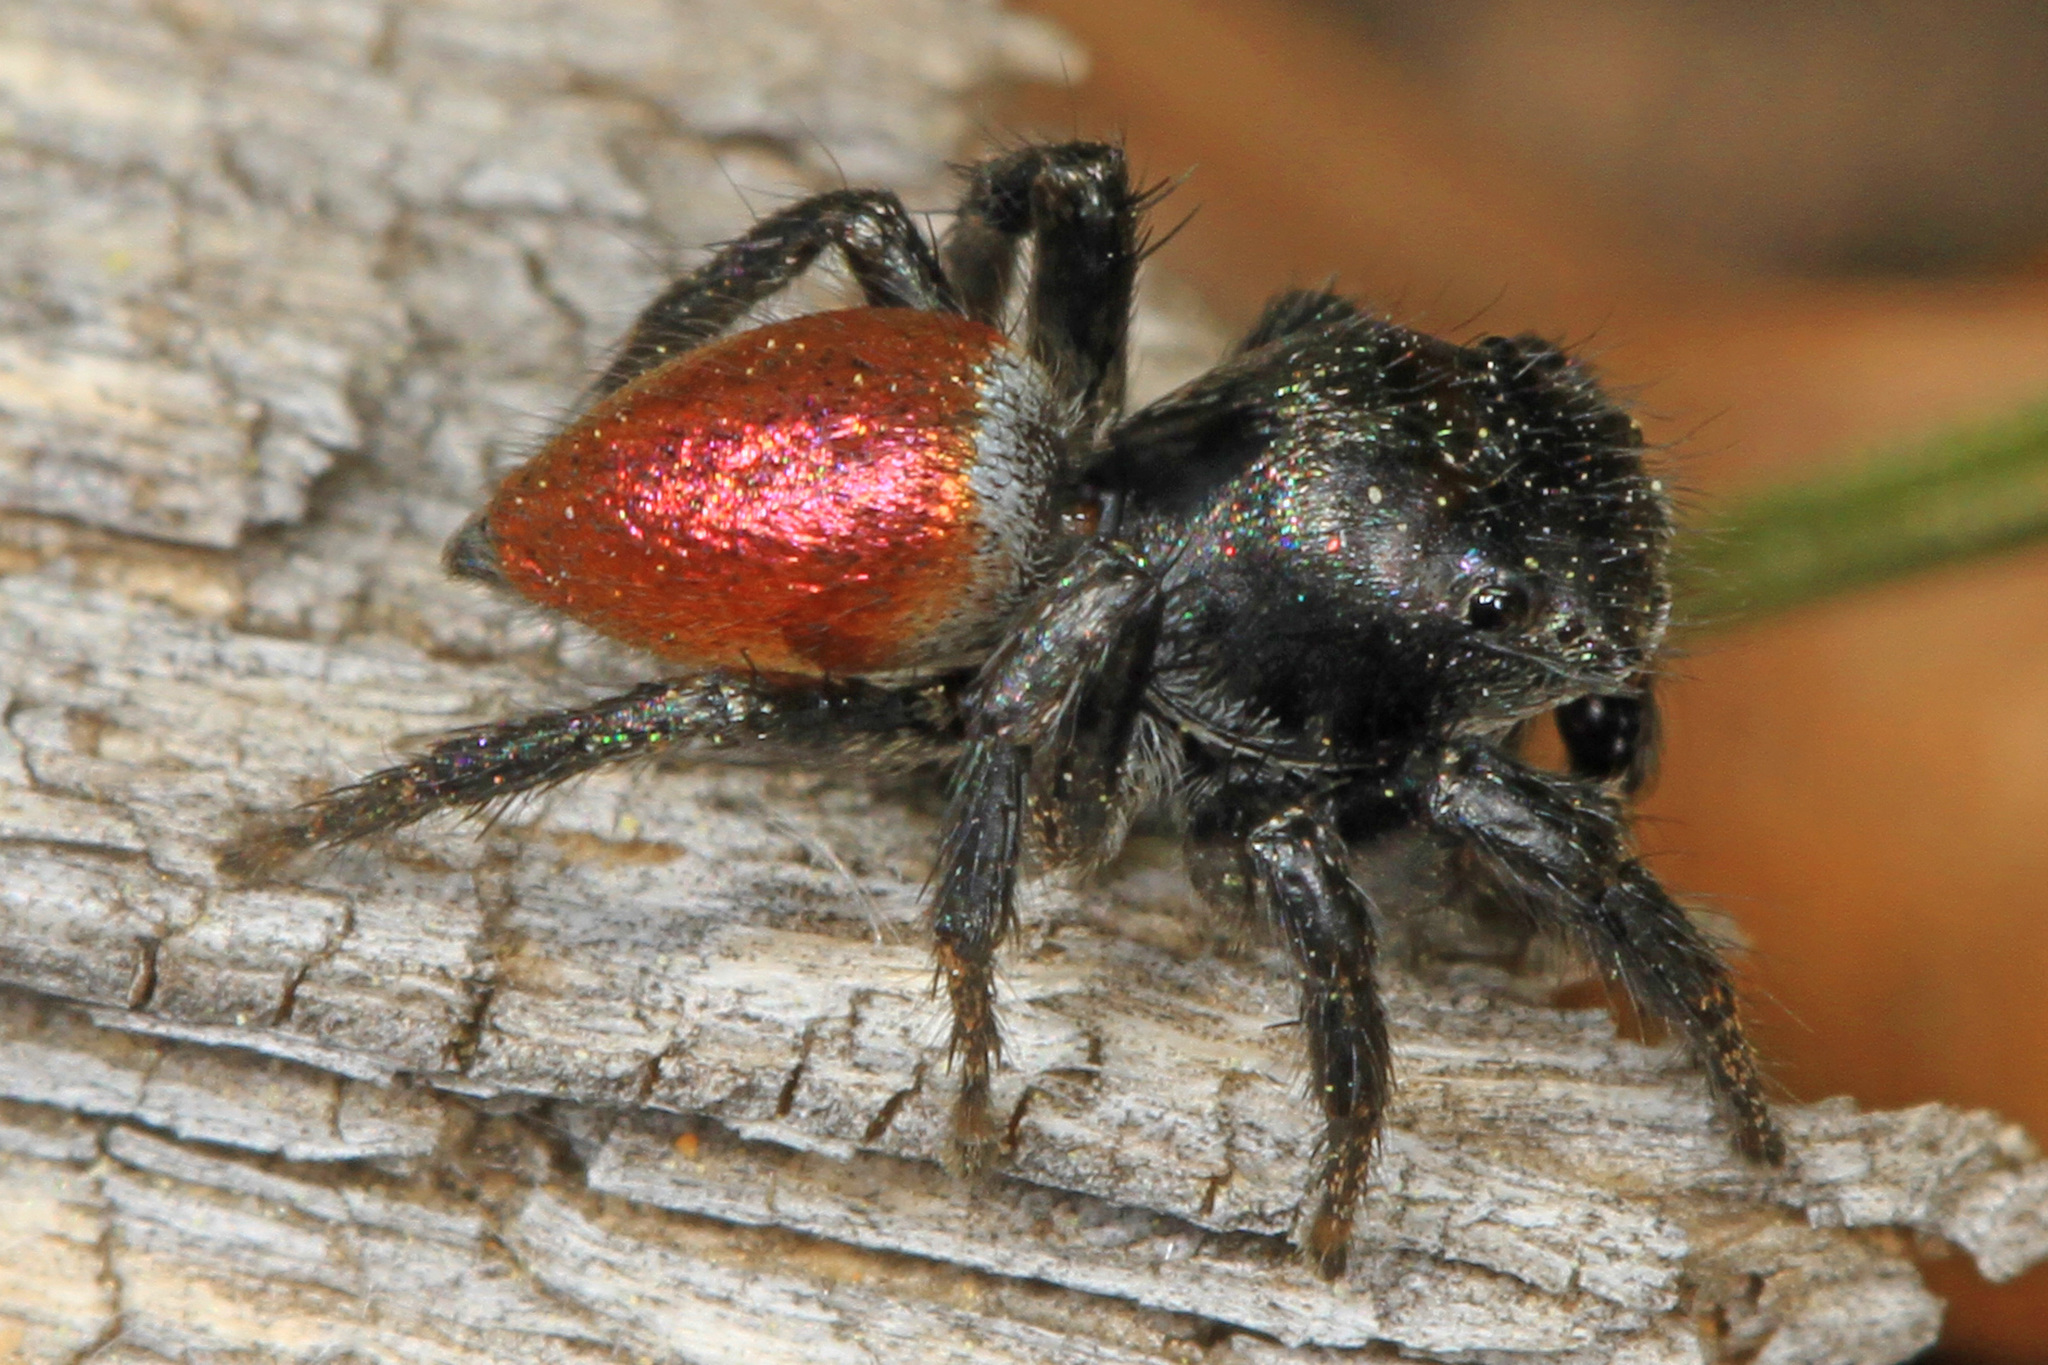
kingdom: Animalia
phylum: Arthropoda
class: Arachnida
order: Araneae
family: Salticidae
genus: Habronattus
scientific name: Habronattus decorus
